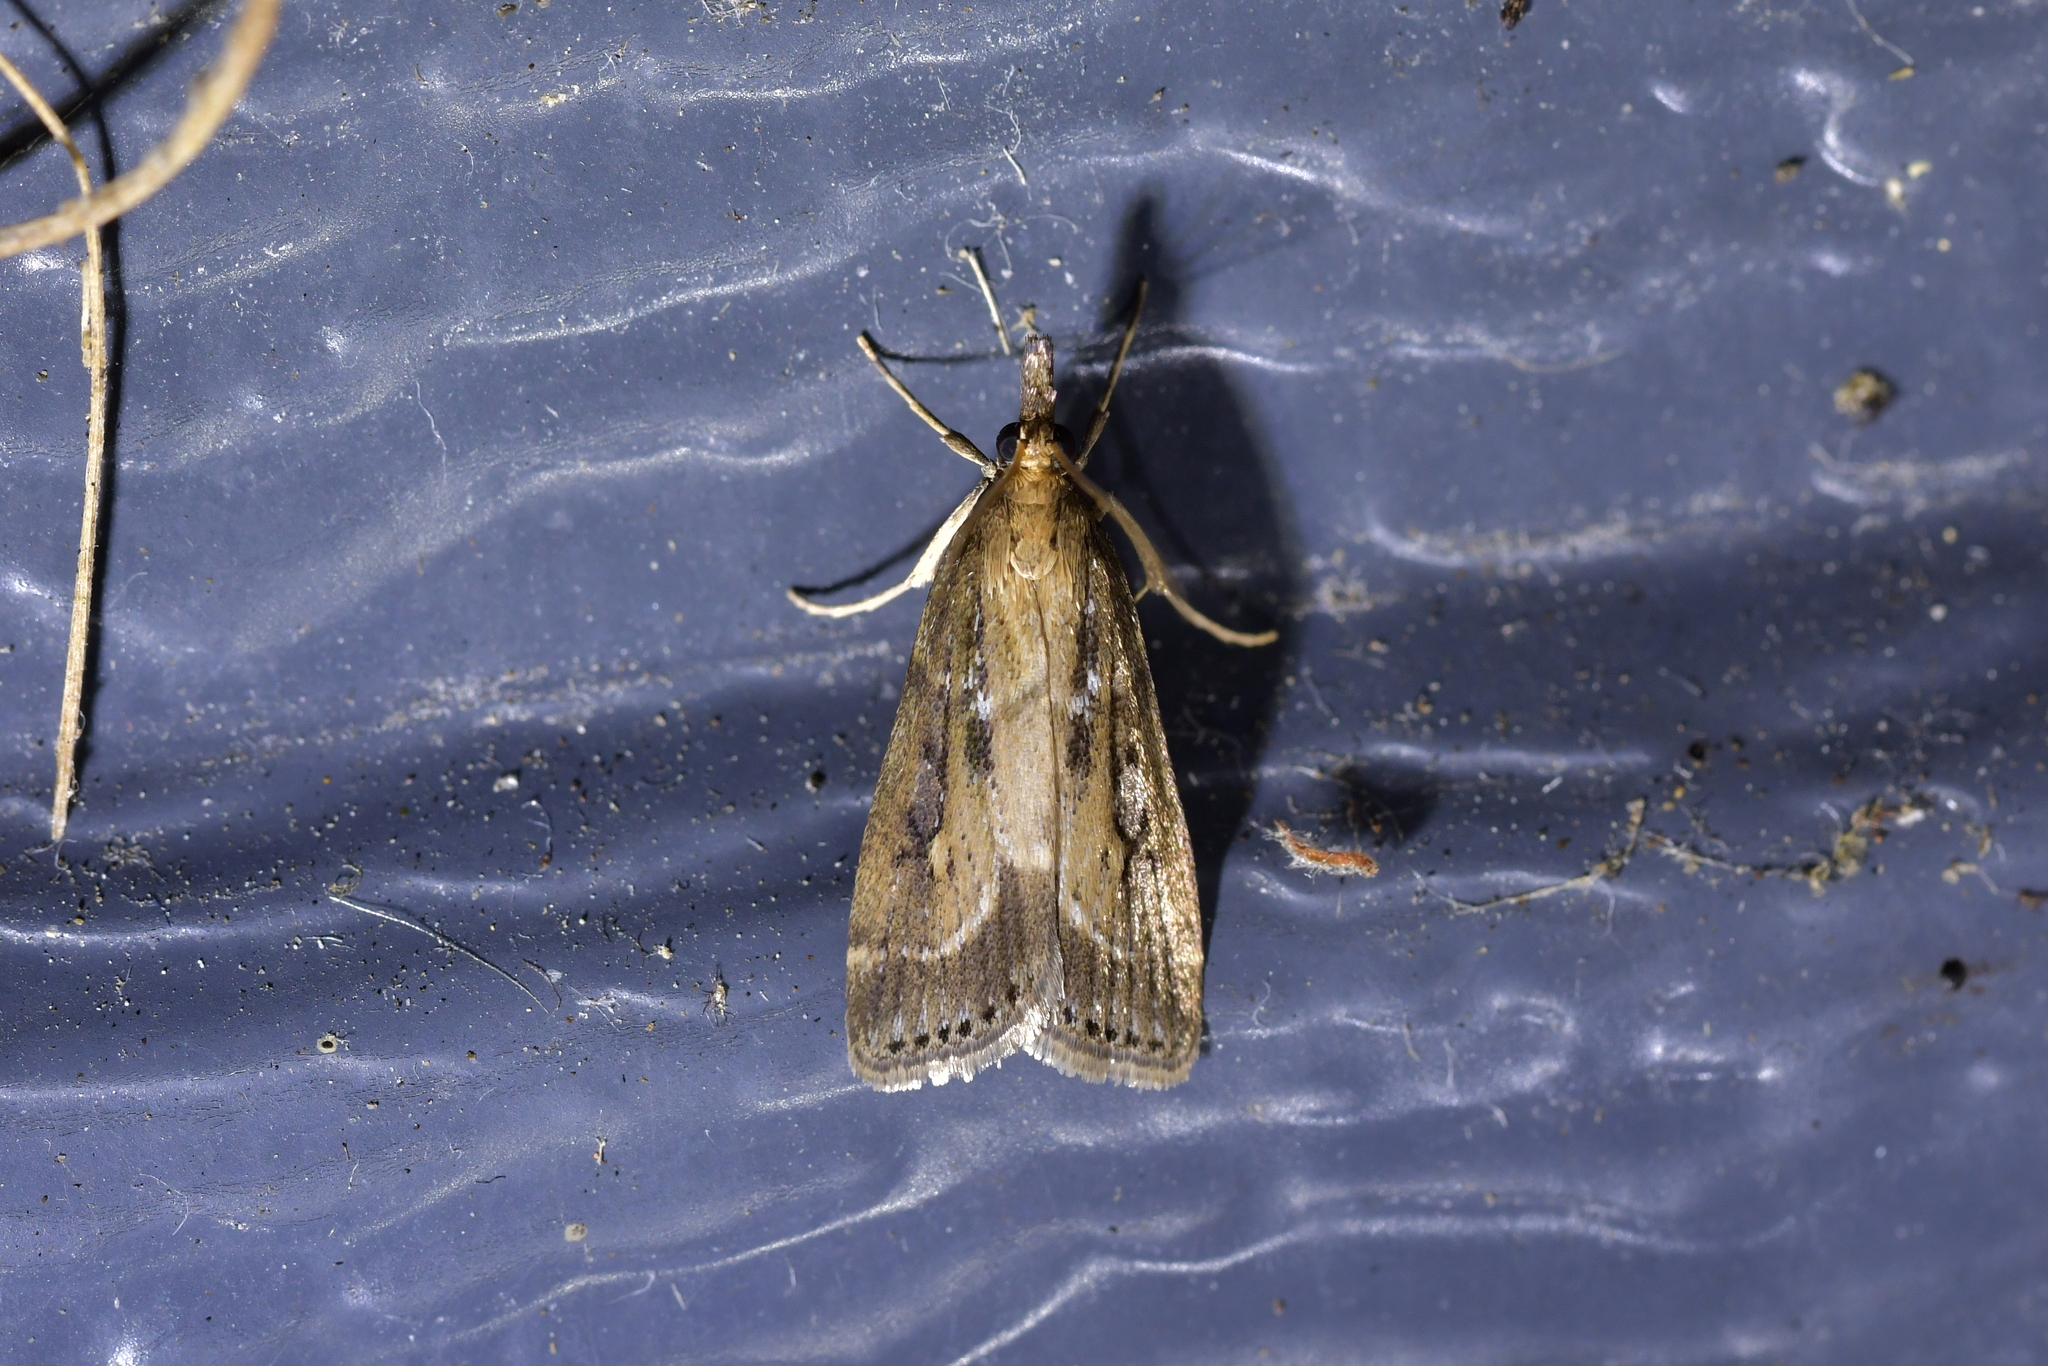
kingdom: Animalia
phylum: Arthropoda
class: Insecta
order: Lepidoptera
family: Crambidae
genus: Eudonia
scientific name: Eudonia octophora
